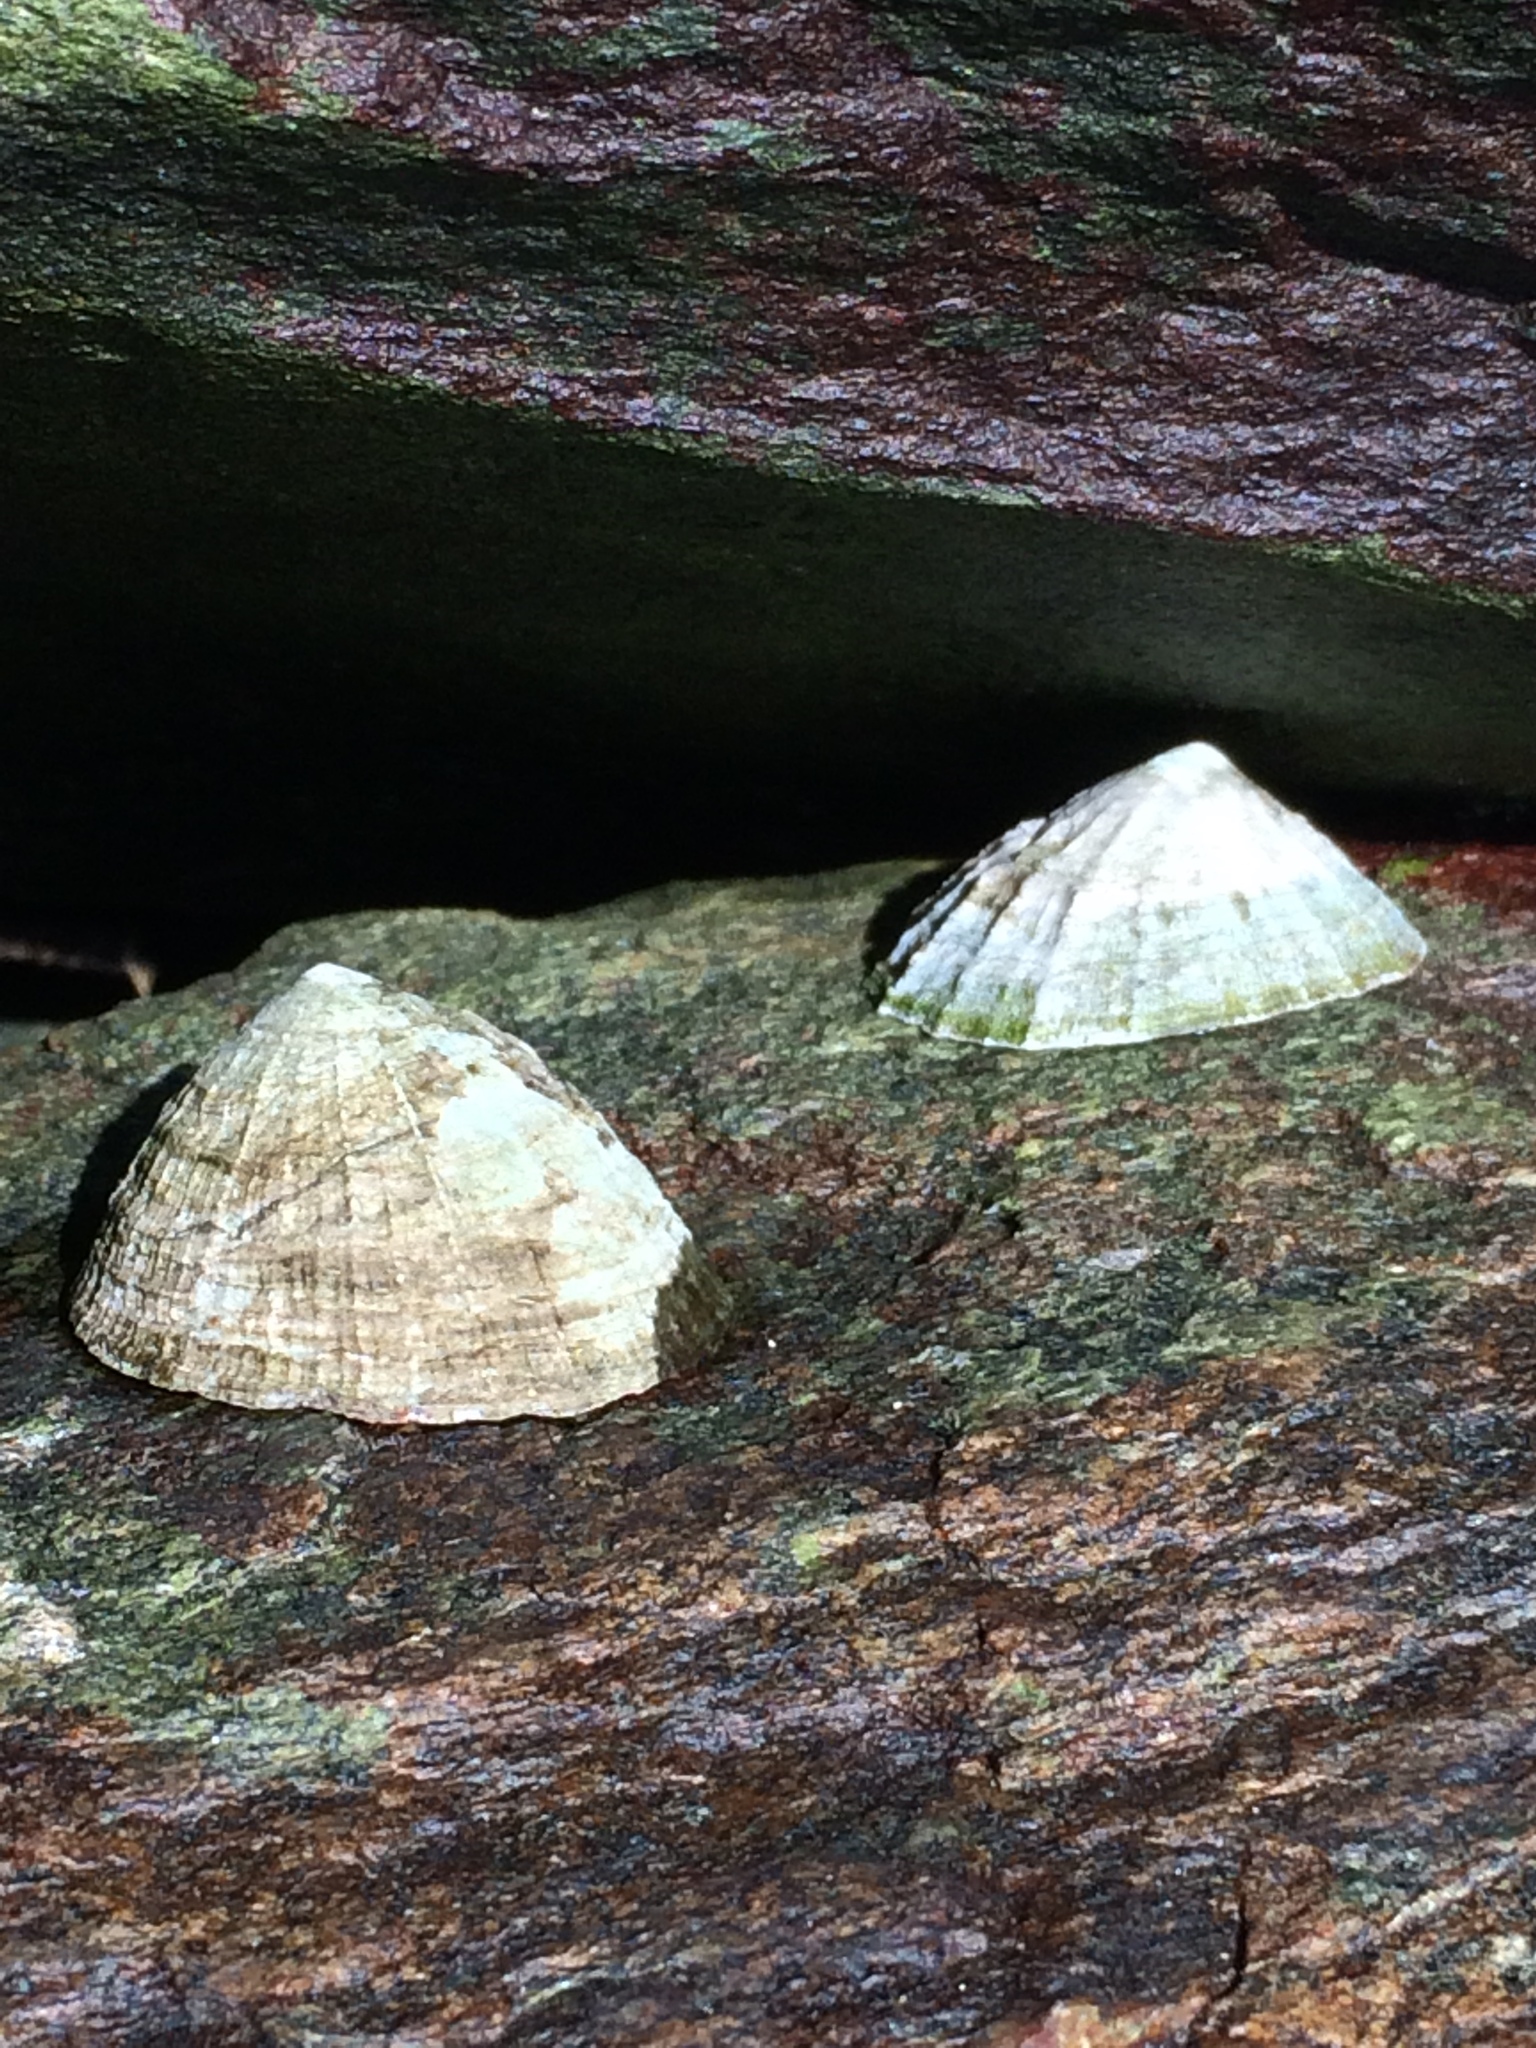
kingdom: Animalia
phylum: Mollusca
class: Gastropoda
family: Patellidae
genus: Patella
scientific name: Patella vulgata
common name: Common limpet
